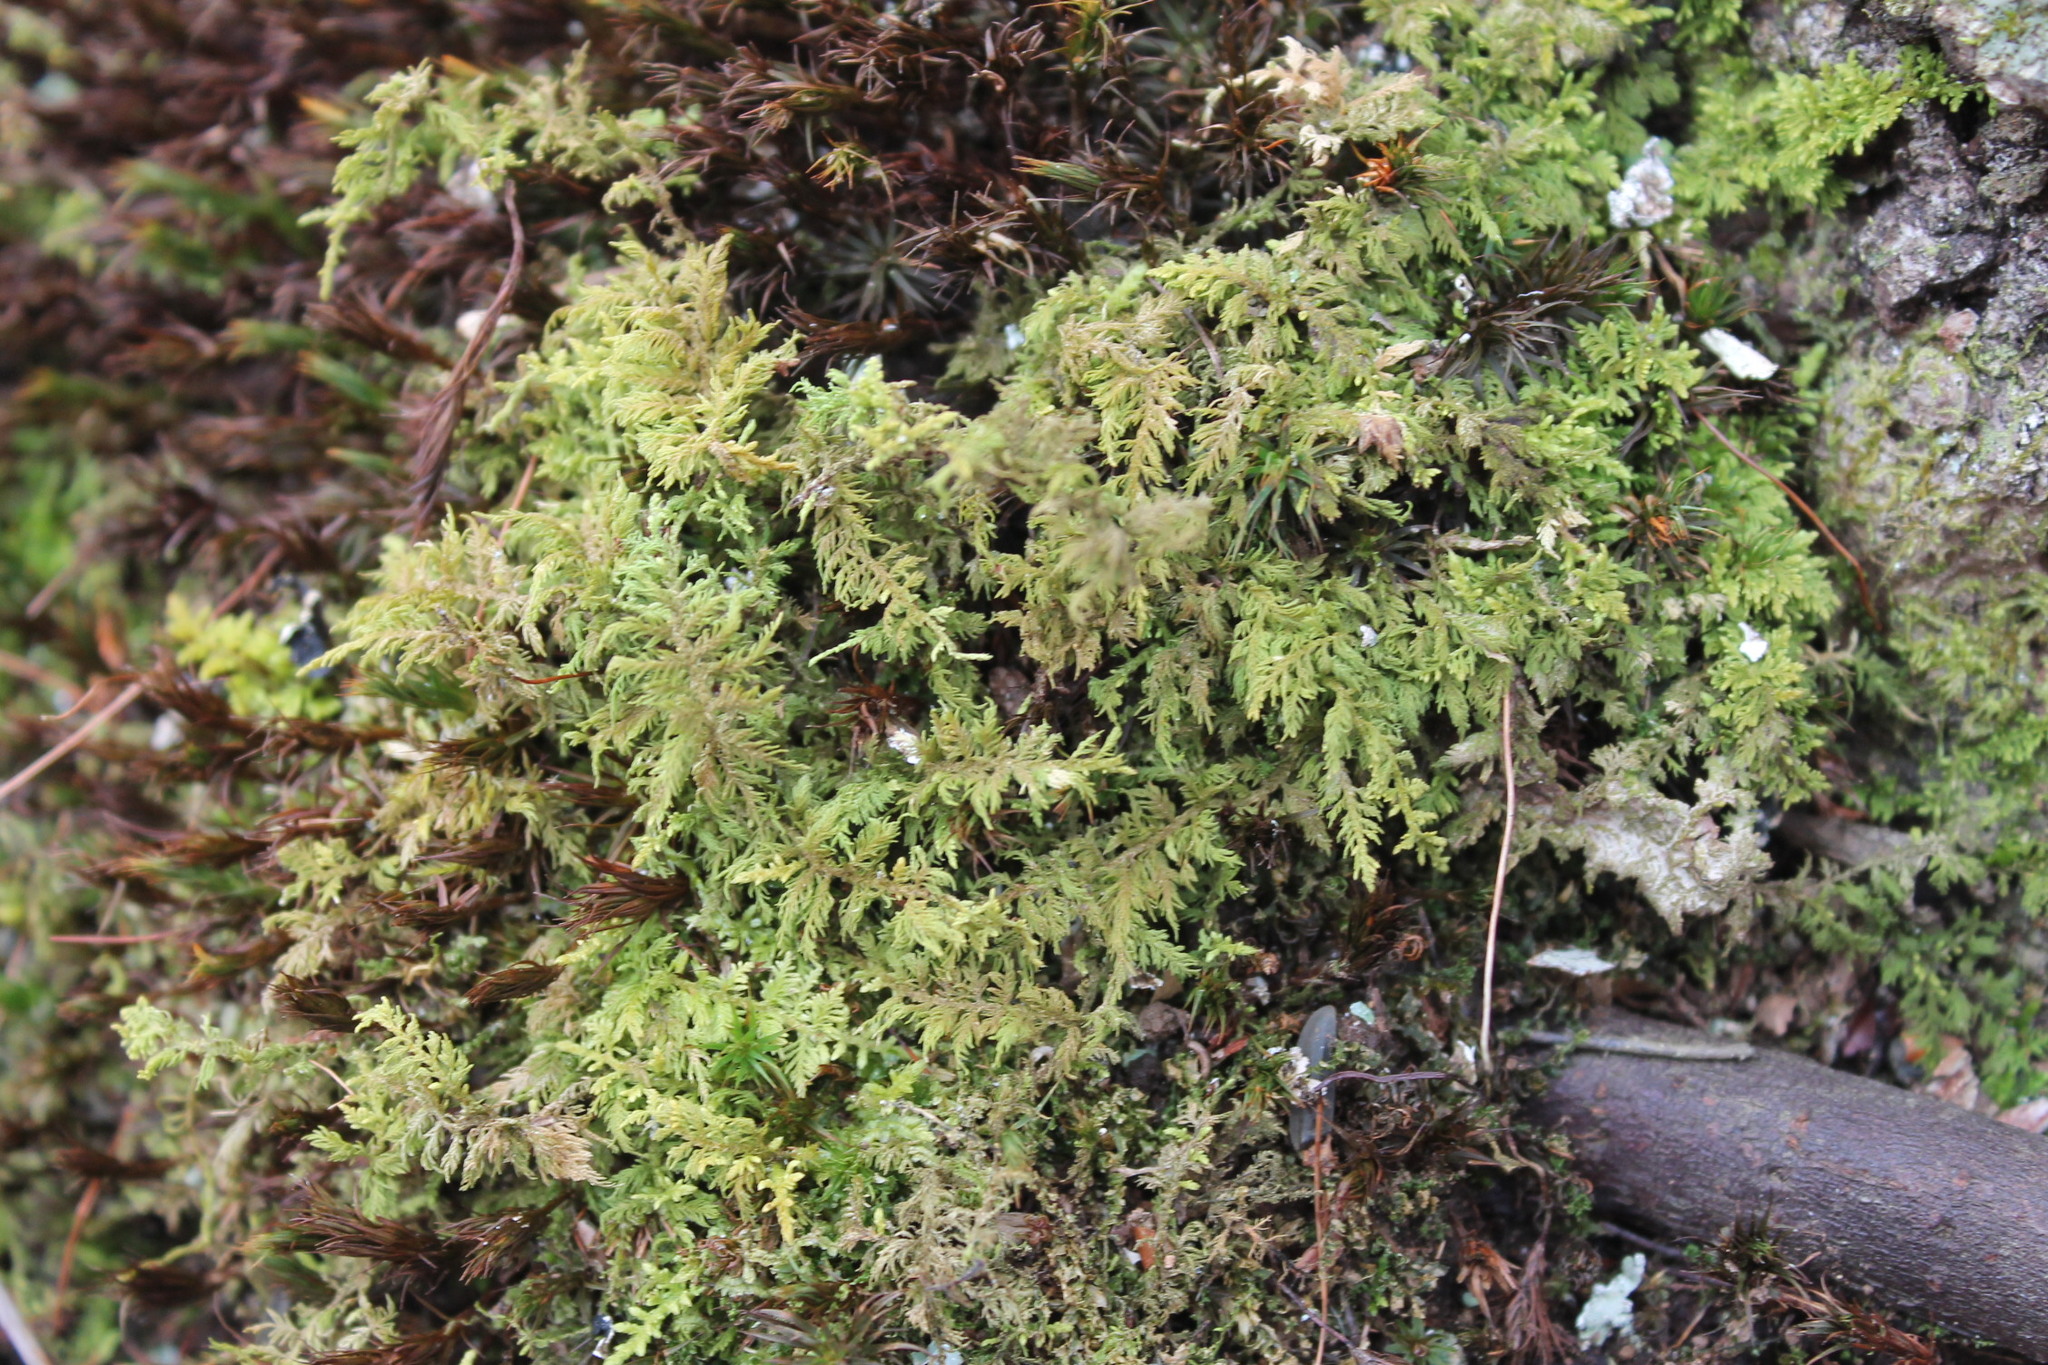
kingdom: Plantae
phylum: Bryophyta
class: Bryopsida
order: Hypnales
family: Thuidiaceae
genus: Thuidium
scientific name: Thuidium delicatulum
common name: Delicate fern moss
